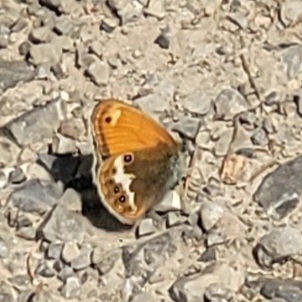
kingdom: Animalia
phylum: Arthropoda
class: Insecta
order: Lepidoptera
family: Nymphalidae
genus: Coenonympha
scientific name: Coenonympha arcania
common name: Pearly heath
